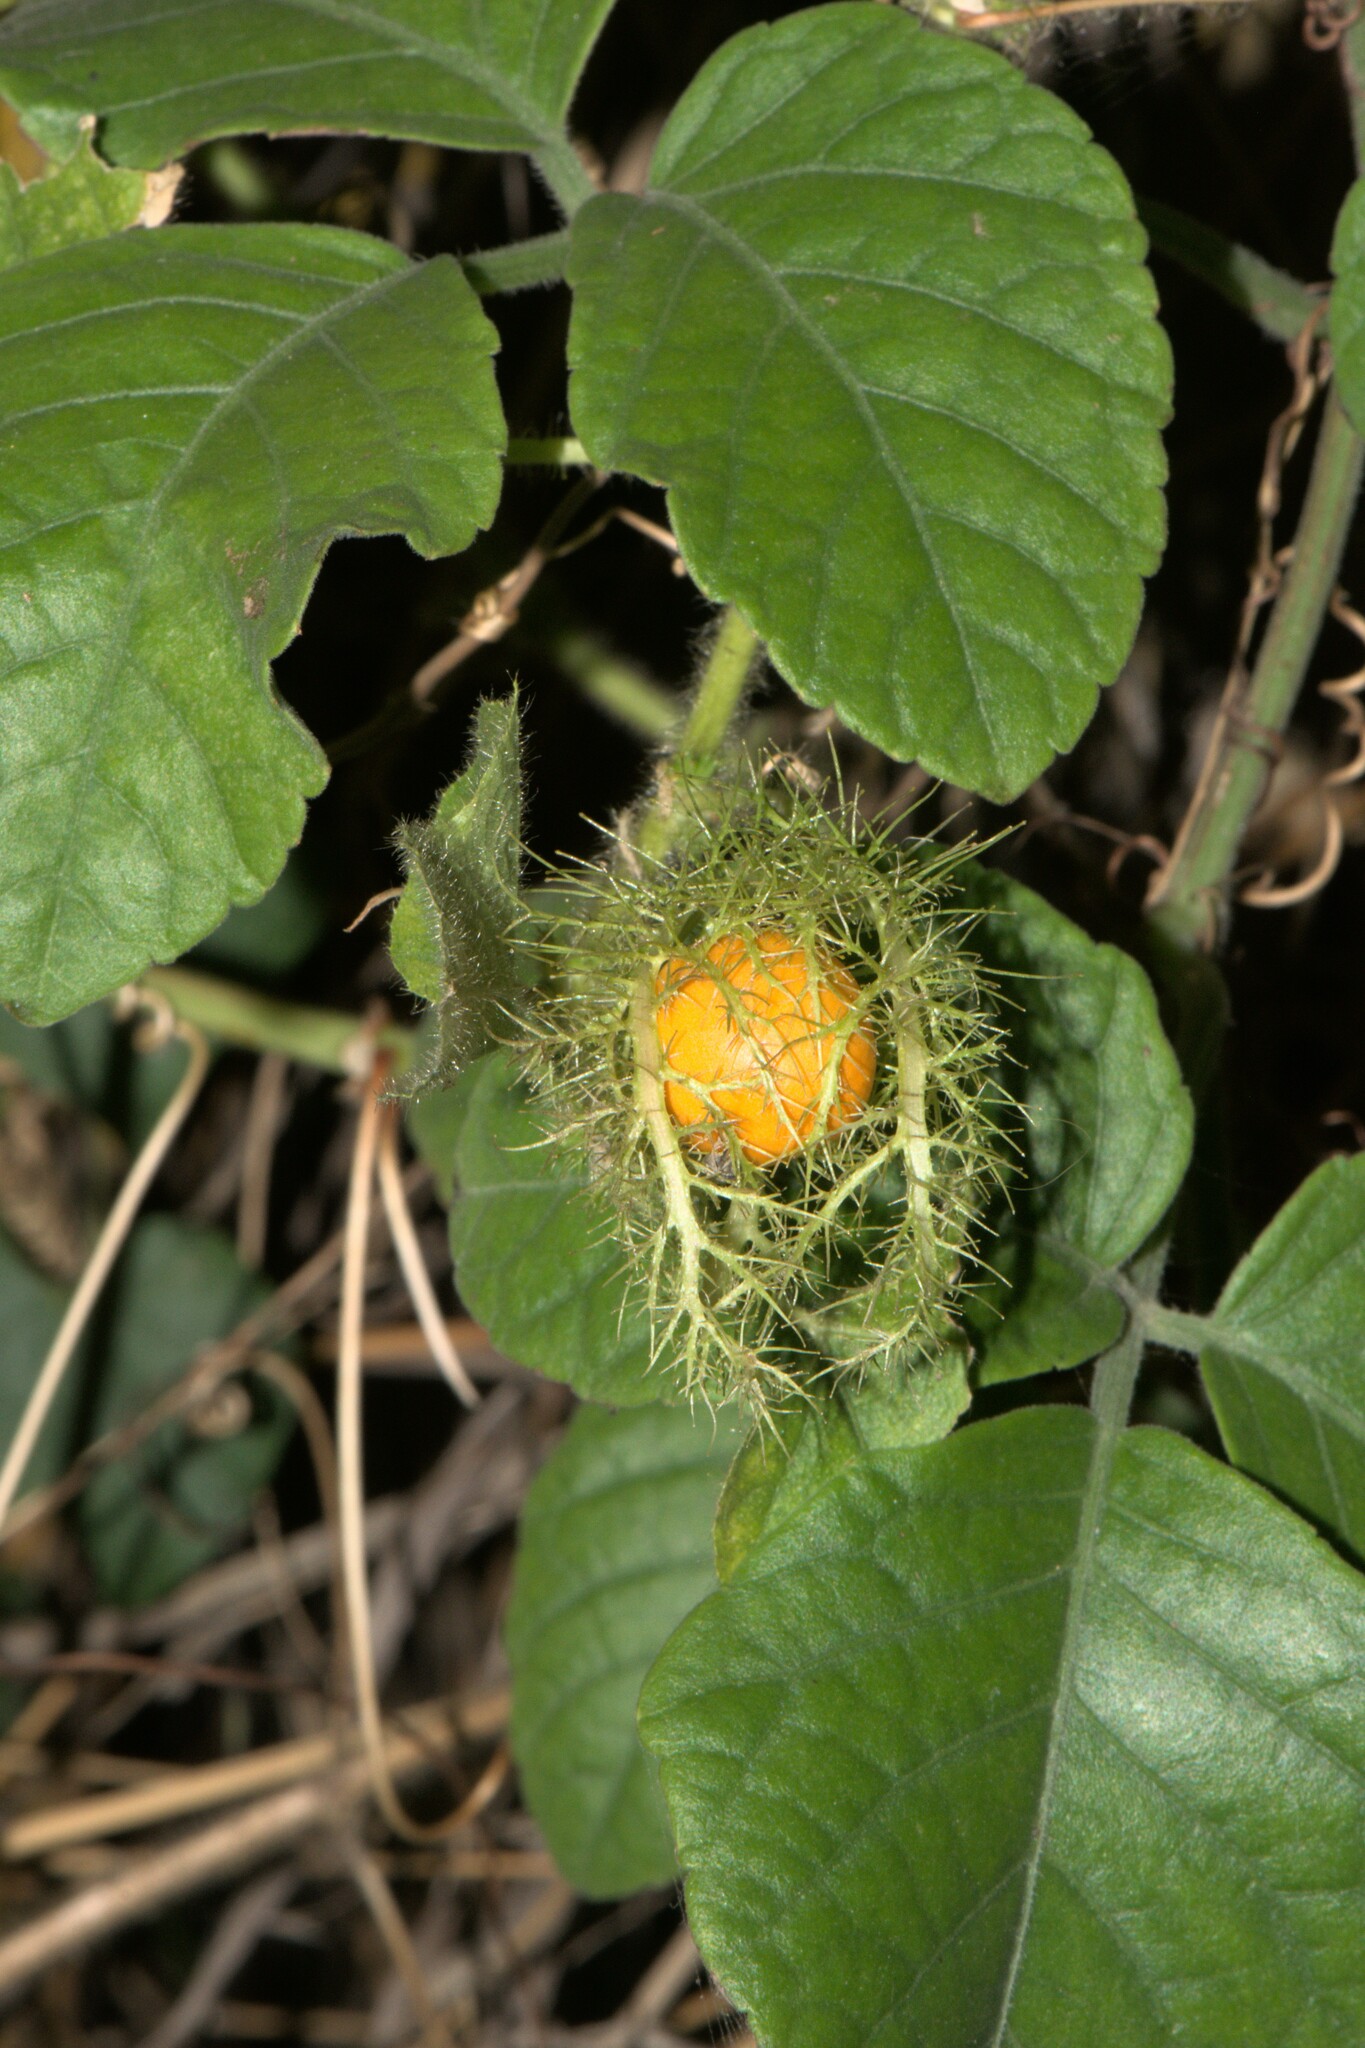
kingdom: Plantae
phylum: Tracheophyta
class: Magnoliopsida
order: Malpighiales
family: Passifloraceae
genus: Passiflora
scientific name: Passiflora foetida
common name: Fetid passionflower
